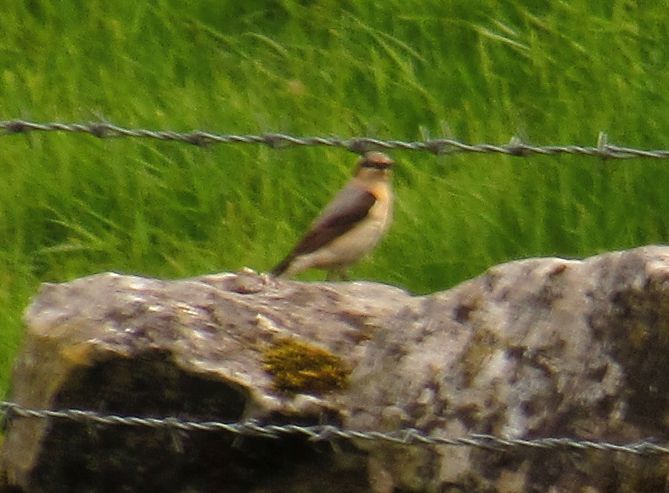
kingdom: Animalia
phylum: Chordata
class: Aves
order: Passeriformes
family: Muscicapidae
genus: Oenanthe
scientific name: Oenanthe oenanthe
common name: Northern wheatear
